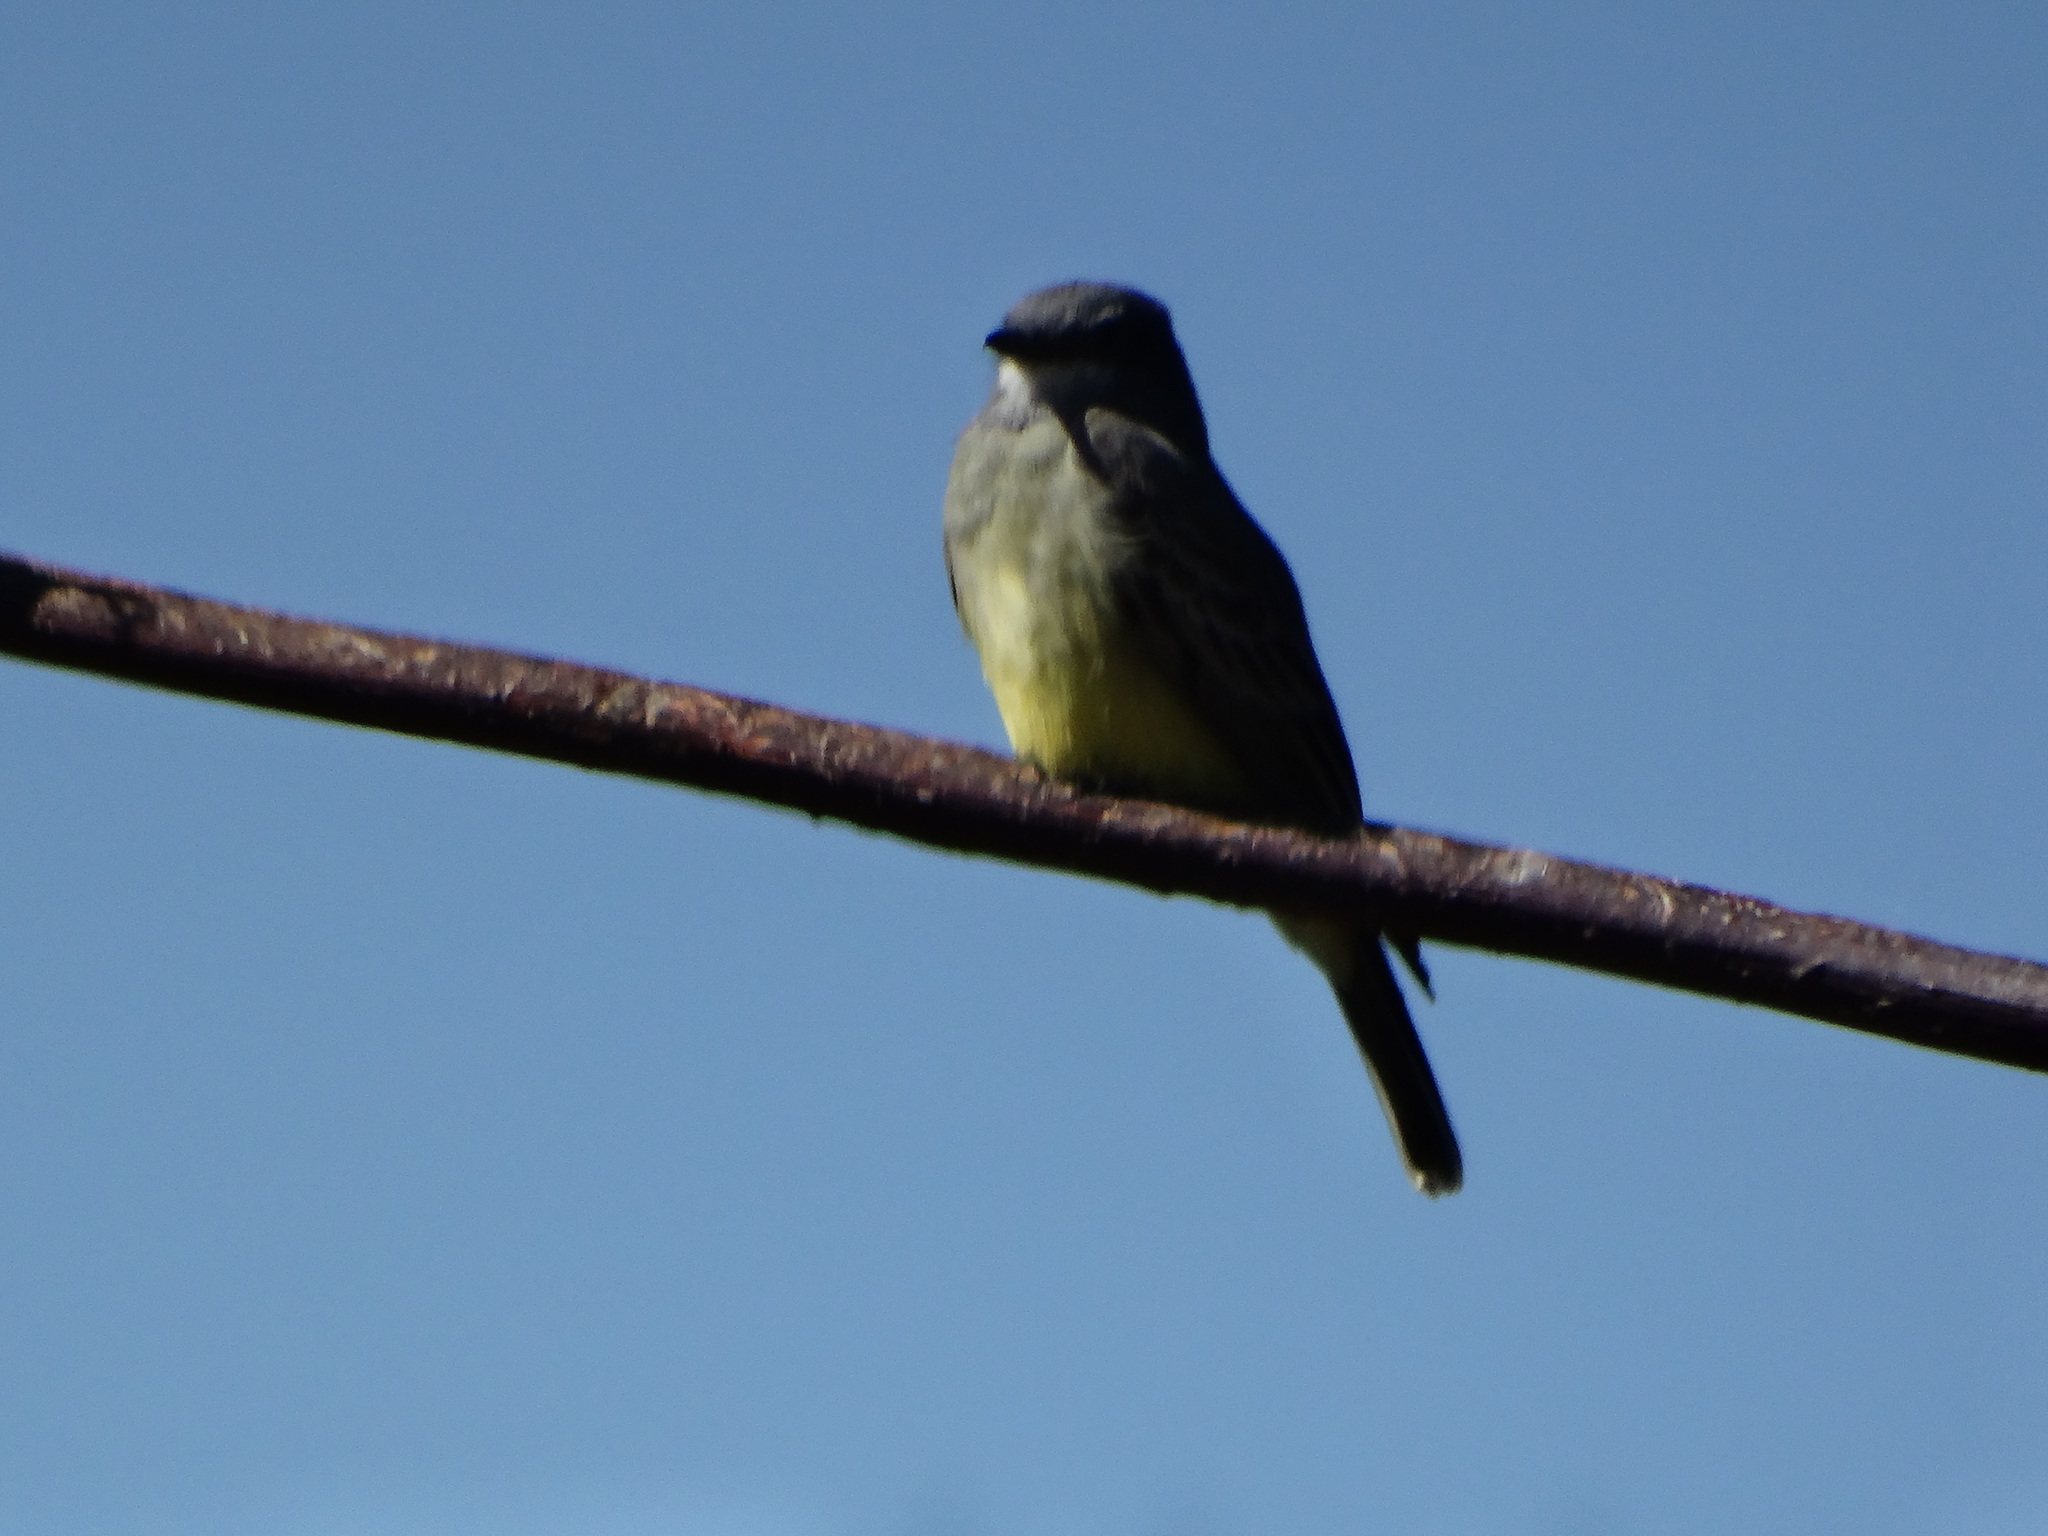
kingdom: Animalia
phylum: Chordata
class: Aves
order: Passeriformes
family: Tyrannidae
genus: Tyrannus
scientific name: Tyrannus vociferans
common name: Cassin's kingbird
